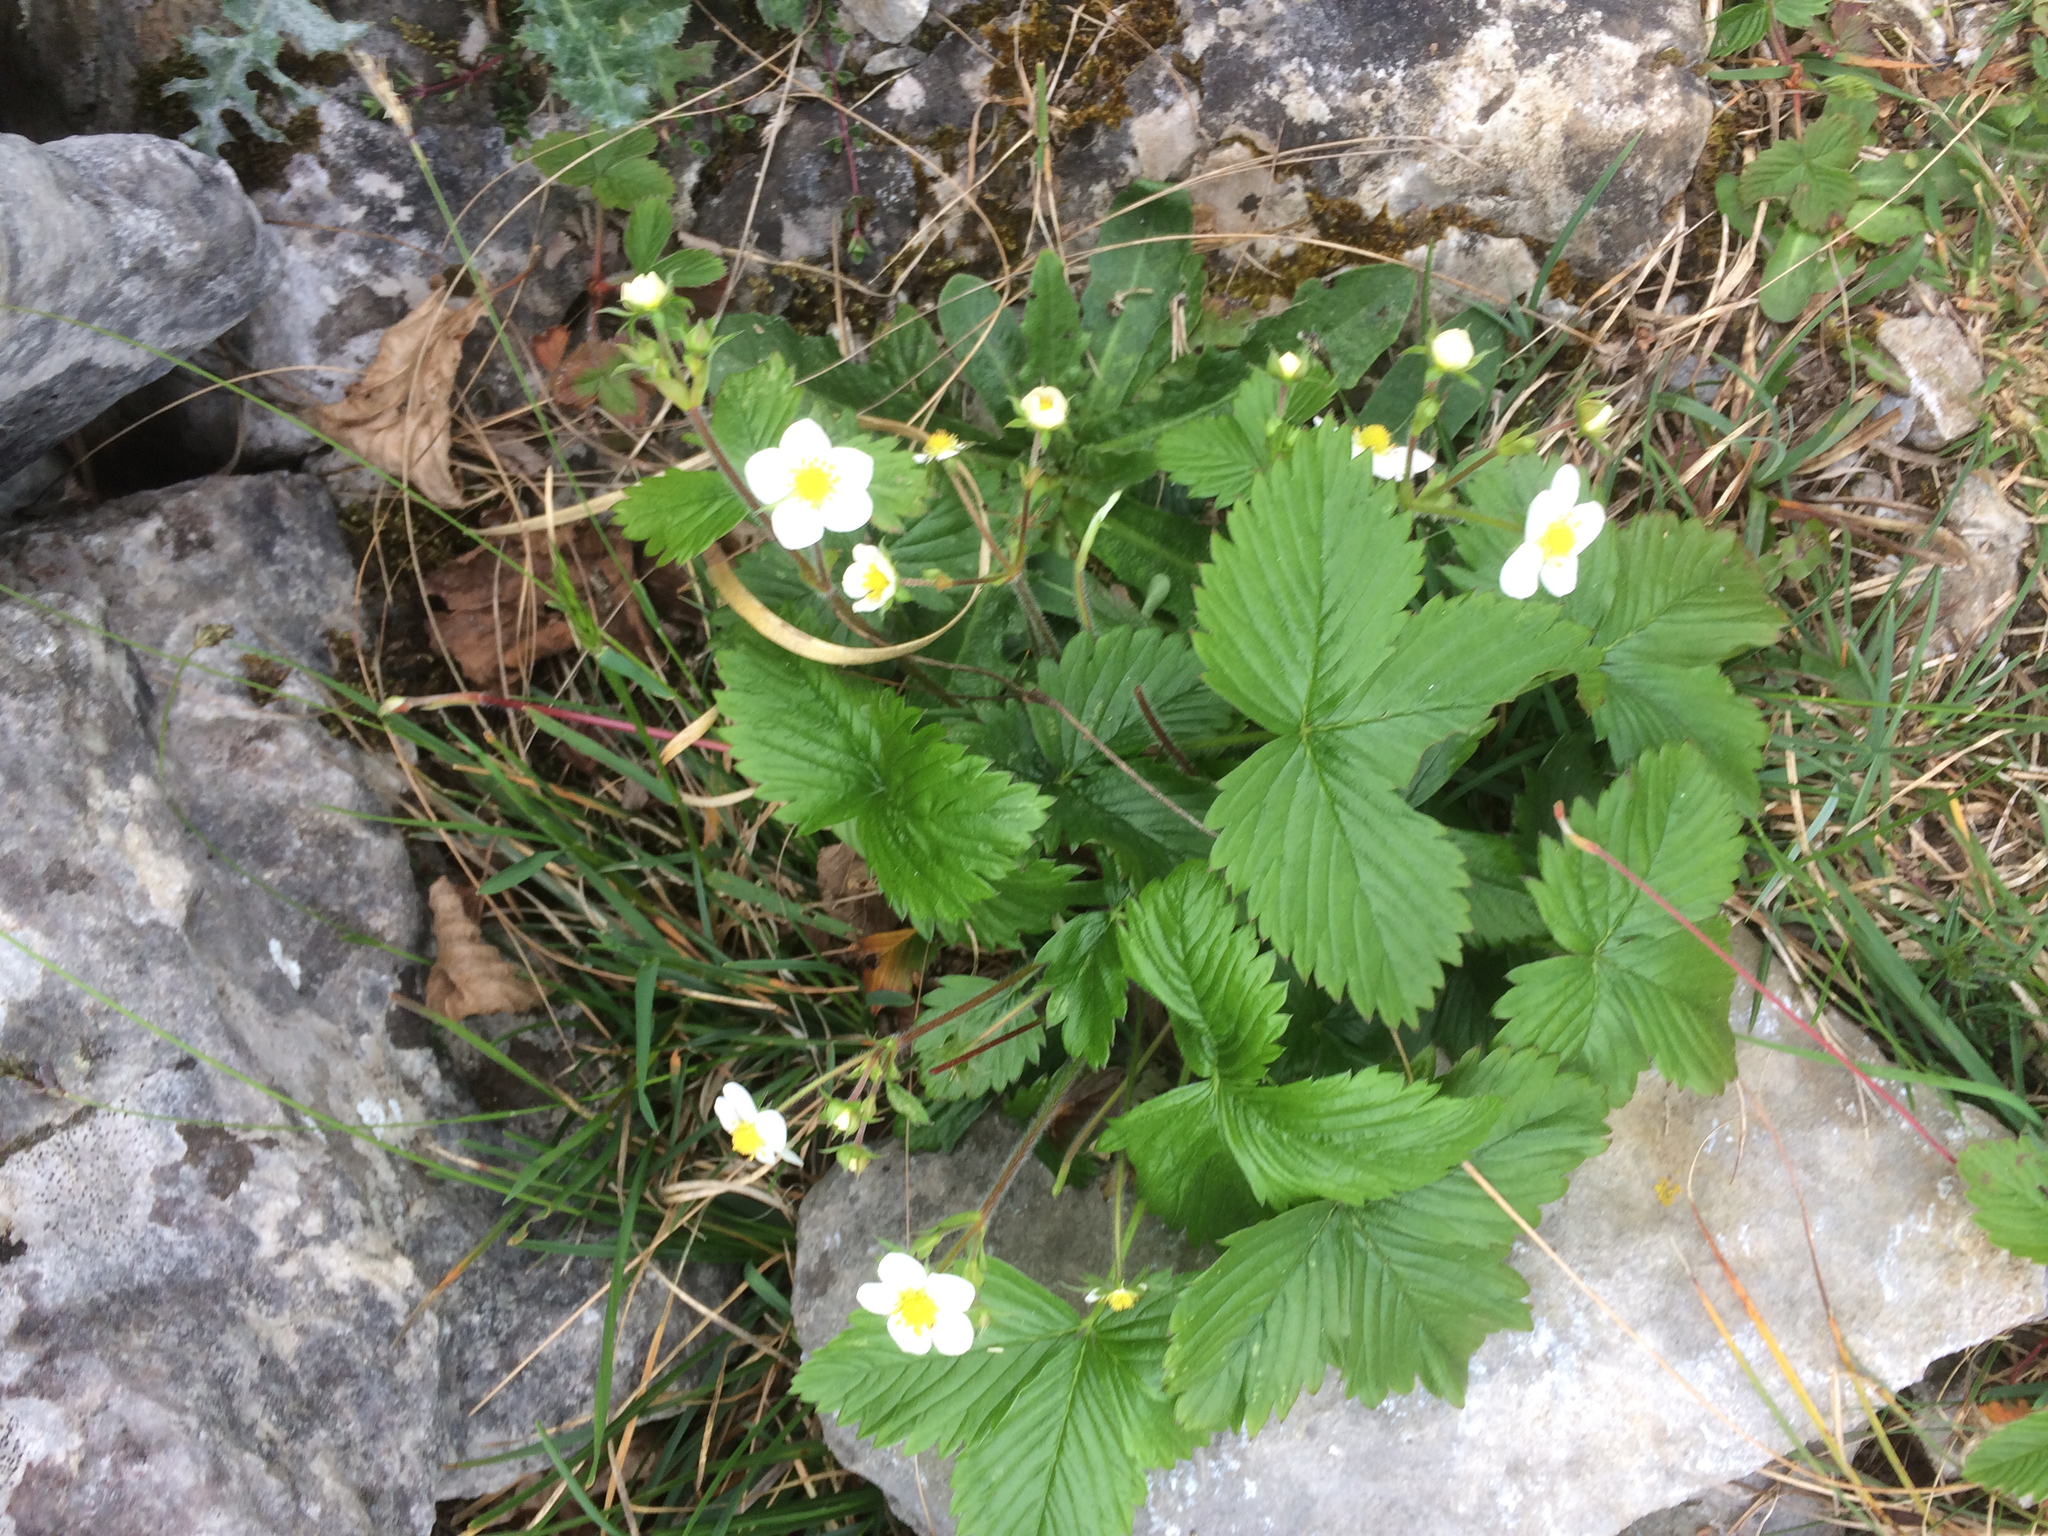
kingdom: Plantae
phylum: Tracheophyta
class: Magnoliopsida
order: Rosales
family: Rosaceae
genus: Fragaria
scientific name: Fragaria vesca
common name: Wild strawberry
